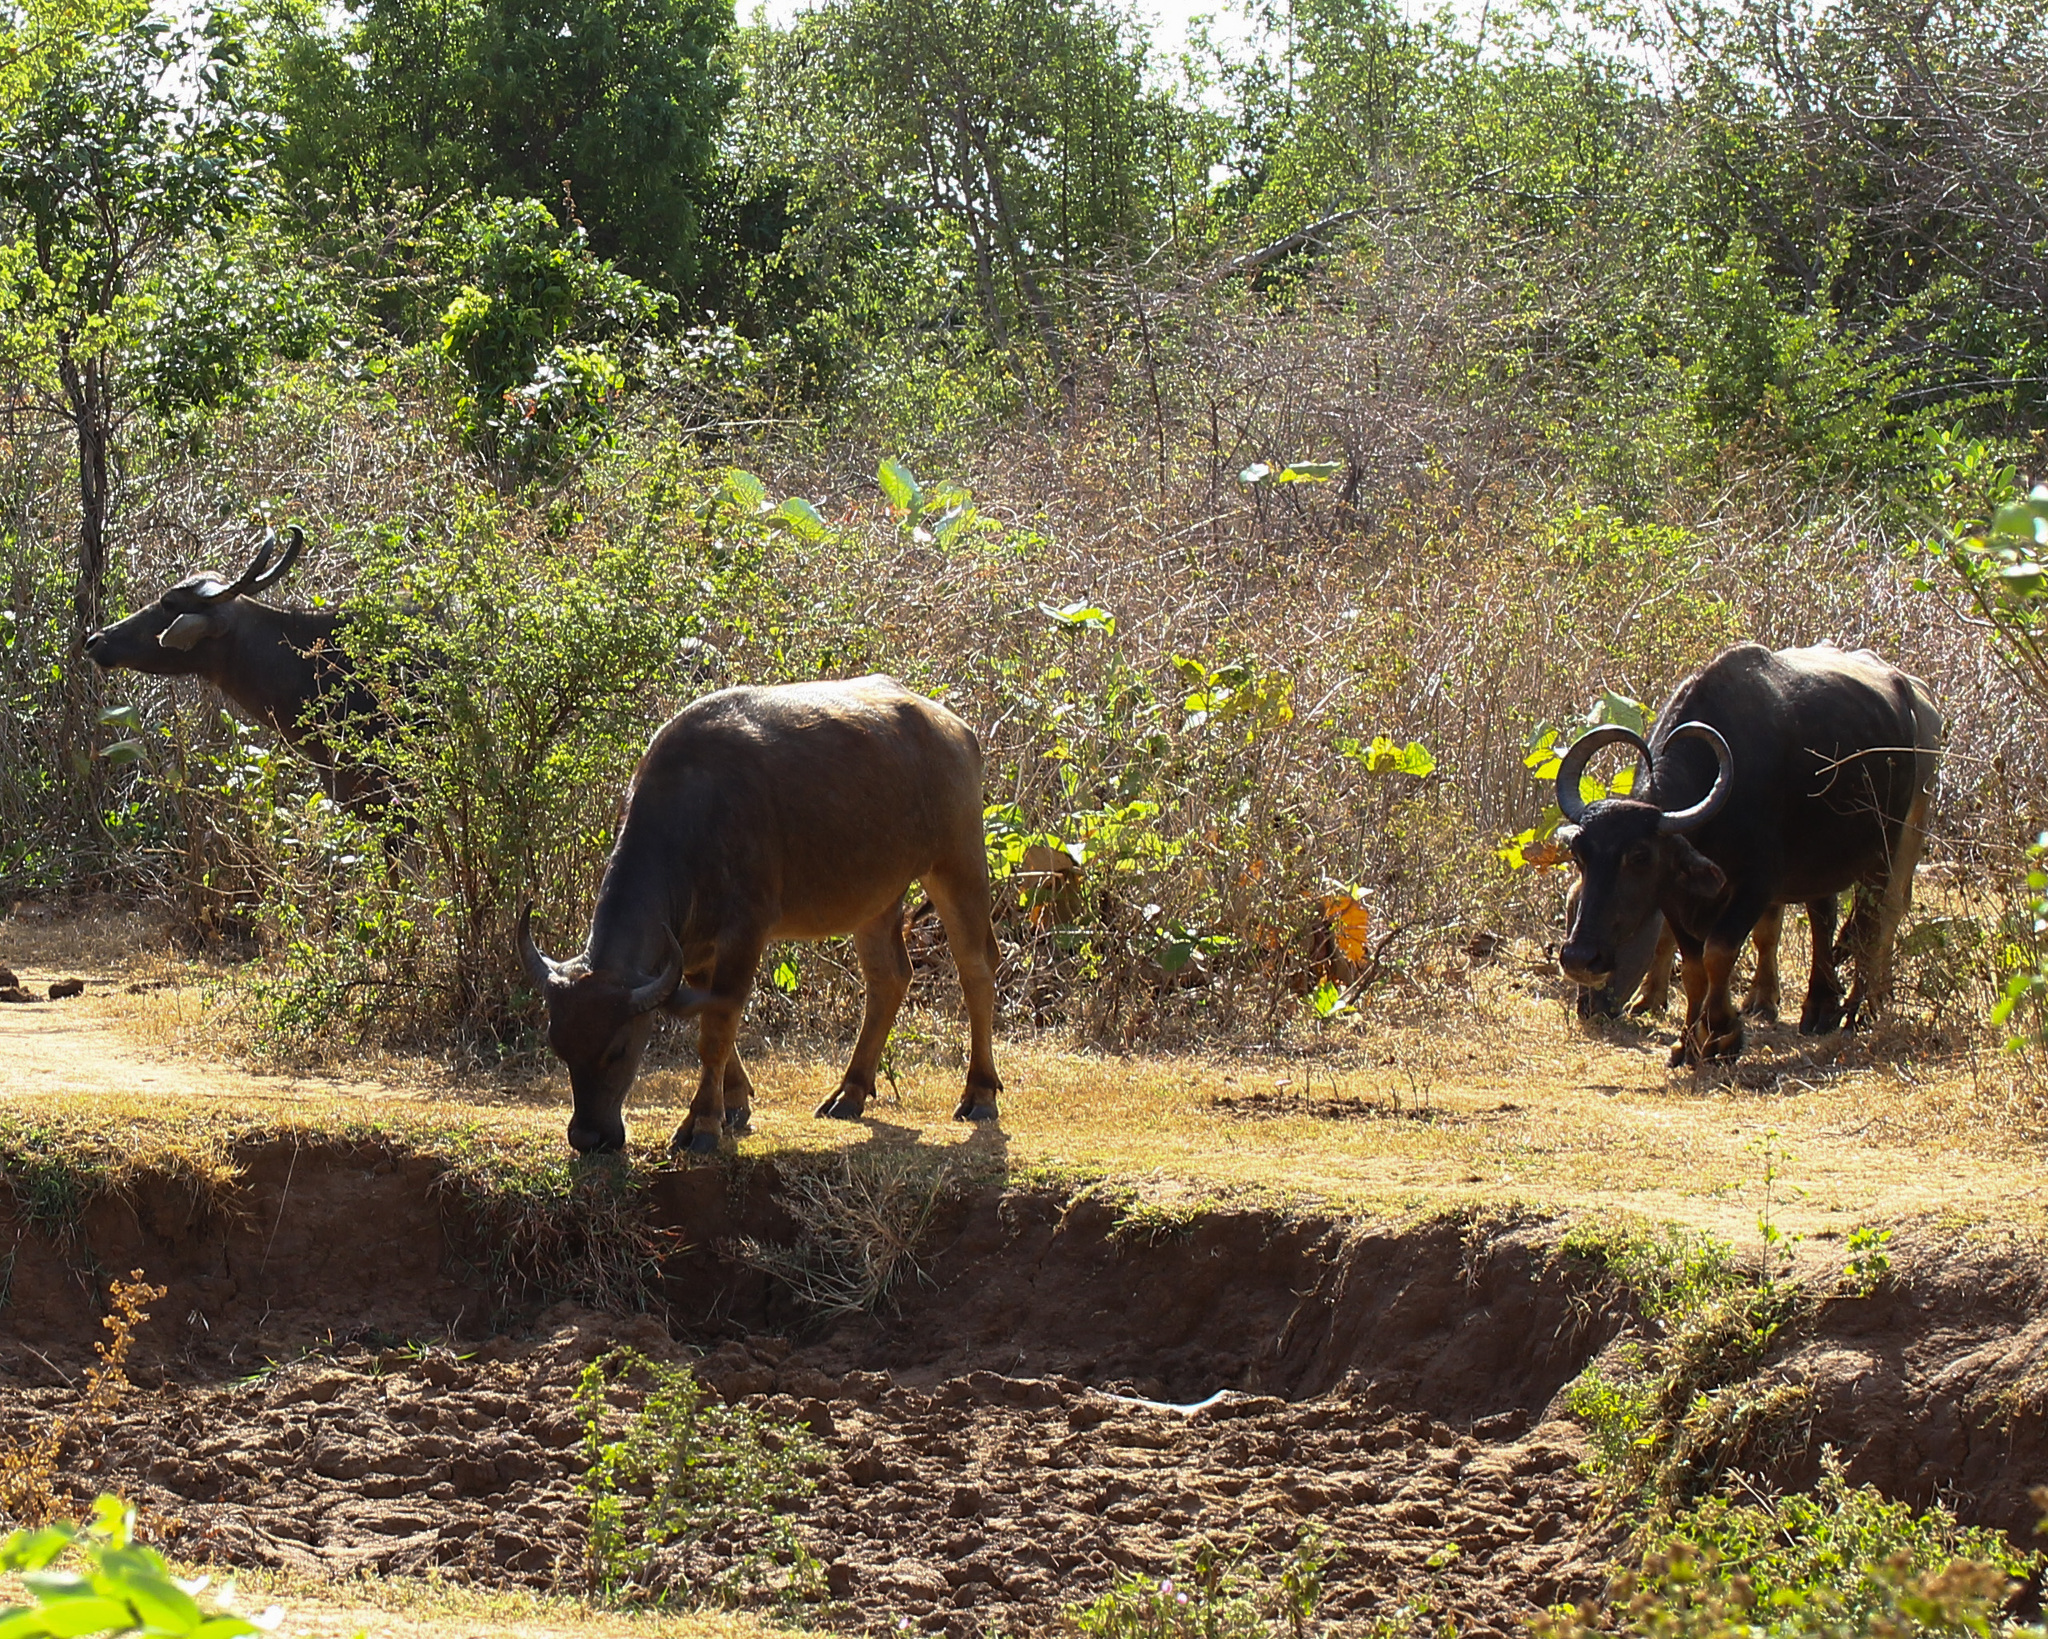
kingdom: Animalia
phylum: Chordata
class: Mammalia
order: Artiodactyla
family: Bovidae
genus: Bubalus
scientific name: Bubalus bubalis
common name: Water buffalo
